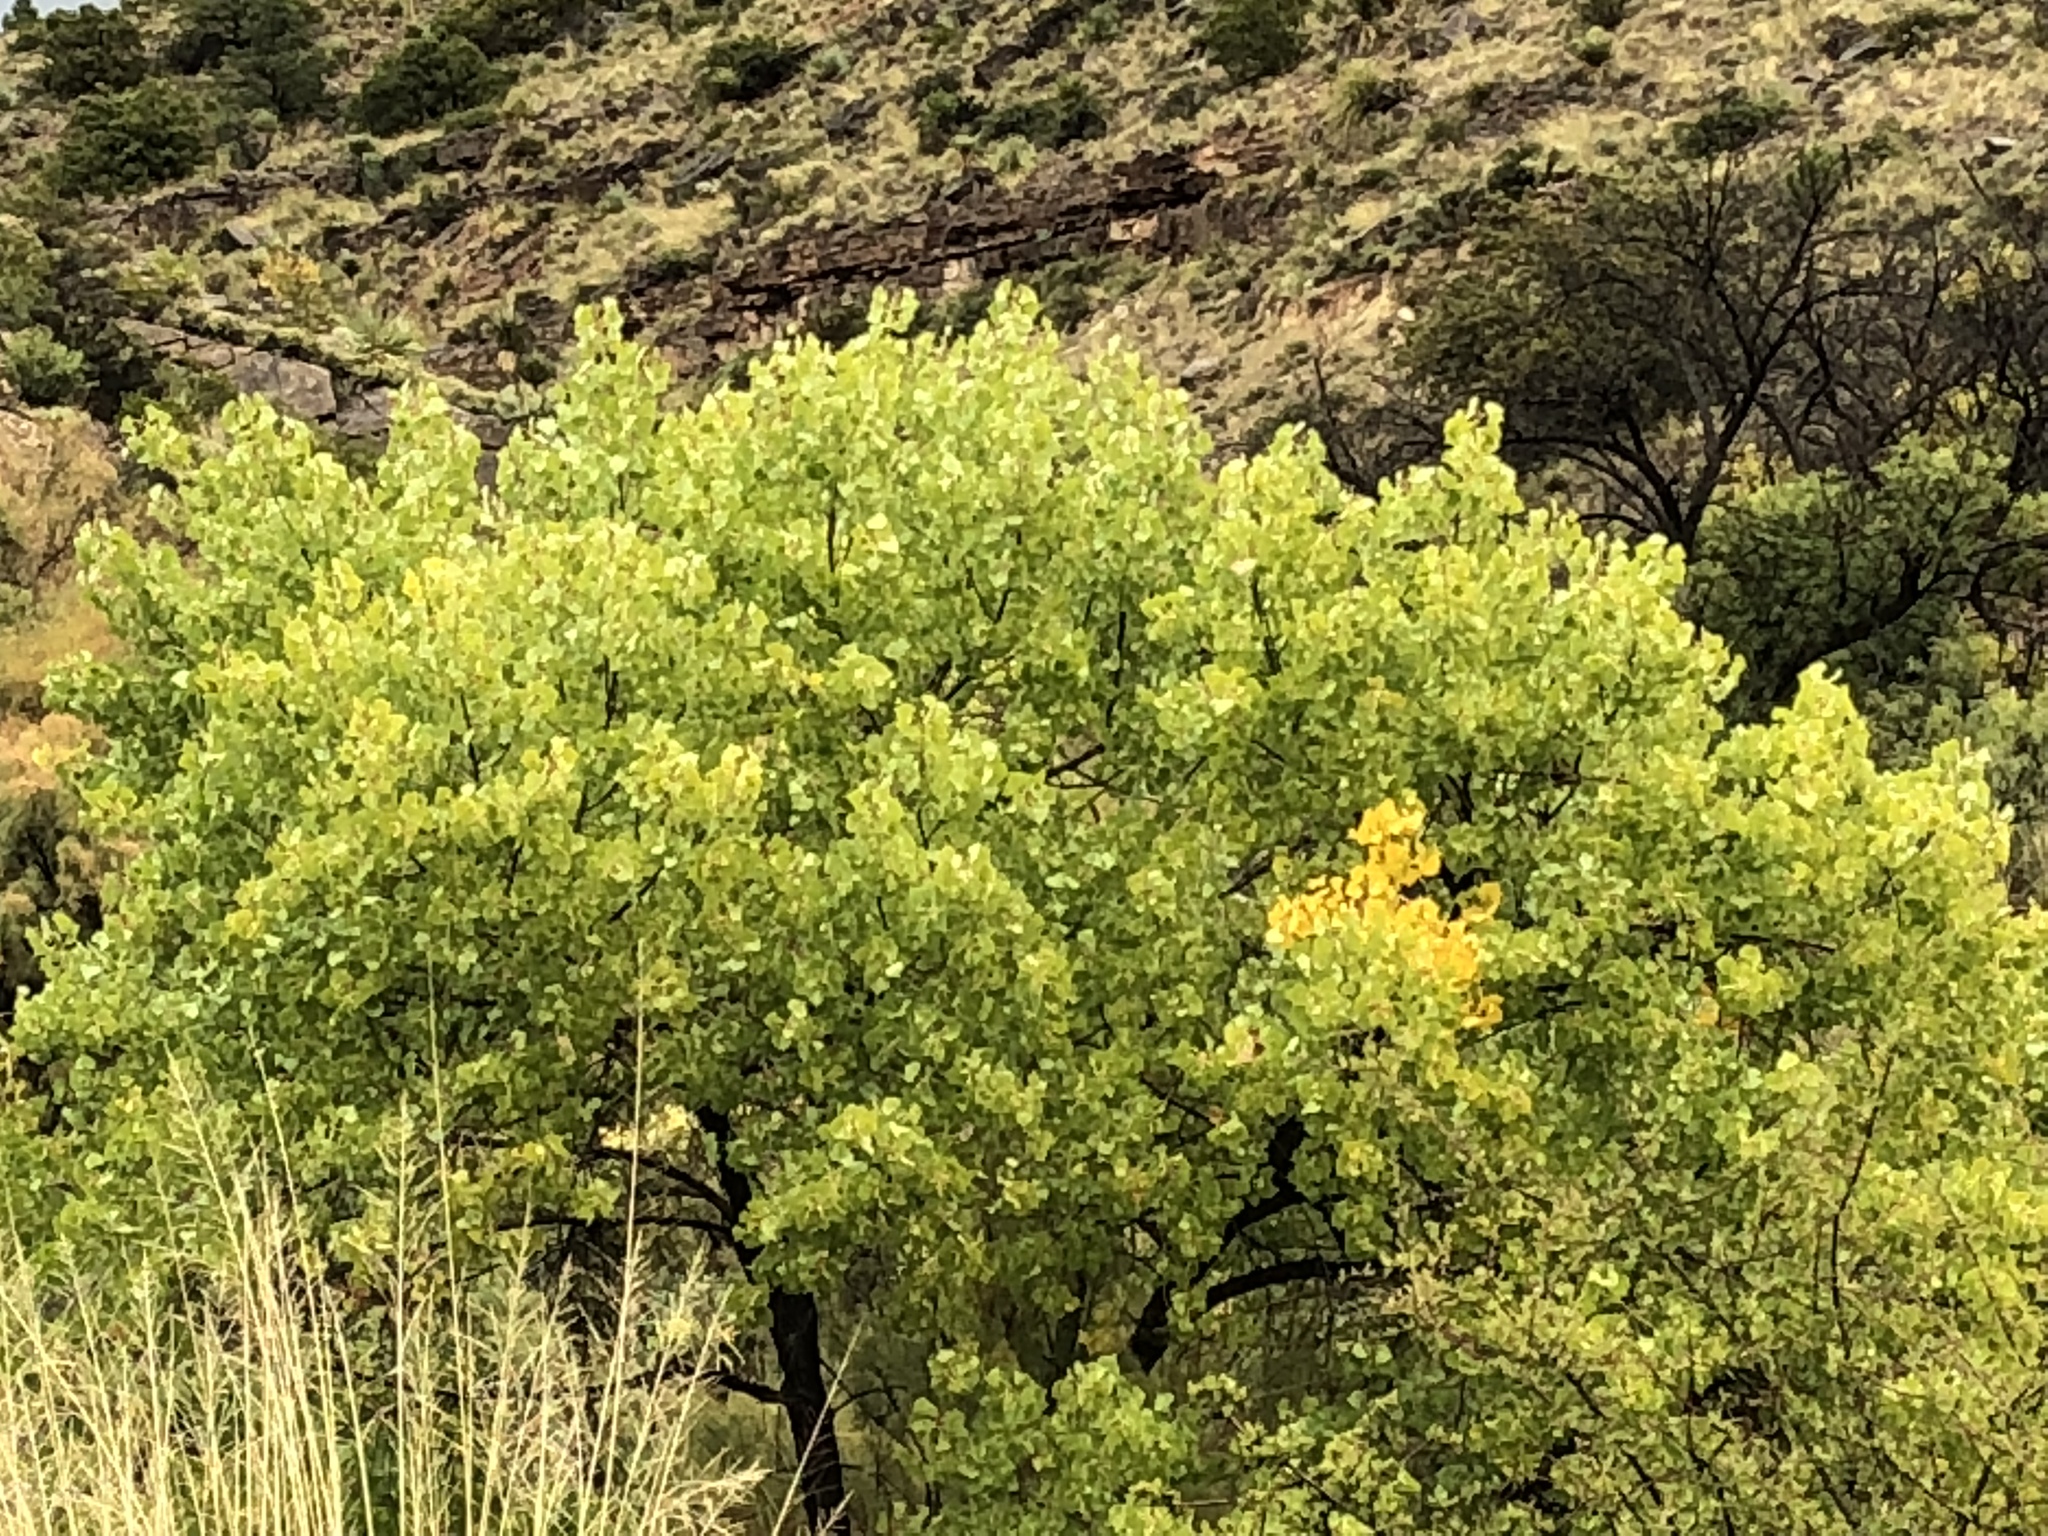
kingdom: Plantae
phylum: Tracheophyta
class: Magnoliopsida
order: Malpighiales
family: Salicaceae
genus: Populus
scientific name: Populus fremontii
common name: Fremont's cottonwood
